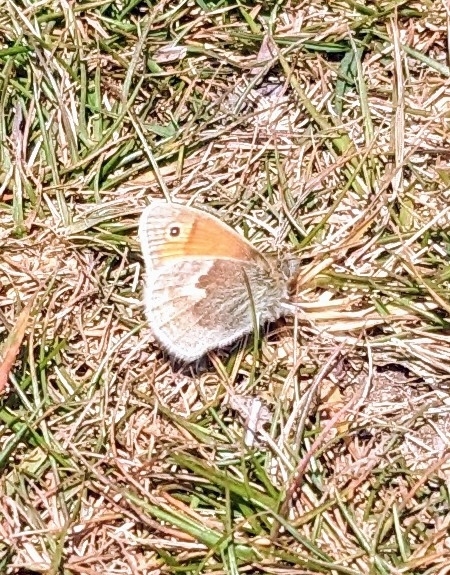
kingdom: Animalia
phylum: Arthropoda
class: Insecta
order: Lepidoptera
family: Nymphalidae
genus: Coenonympha
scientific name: Coenonympha pamphilus
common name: Small heath
